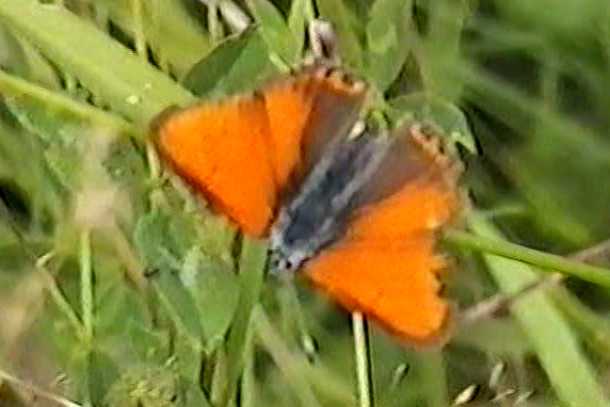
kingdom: Animalia
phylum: Arthropoda
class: Insecta
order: Lepidoptera
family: Lycaenidae
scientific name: Lycaenidae
